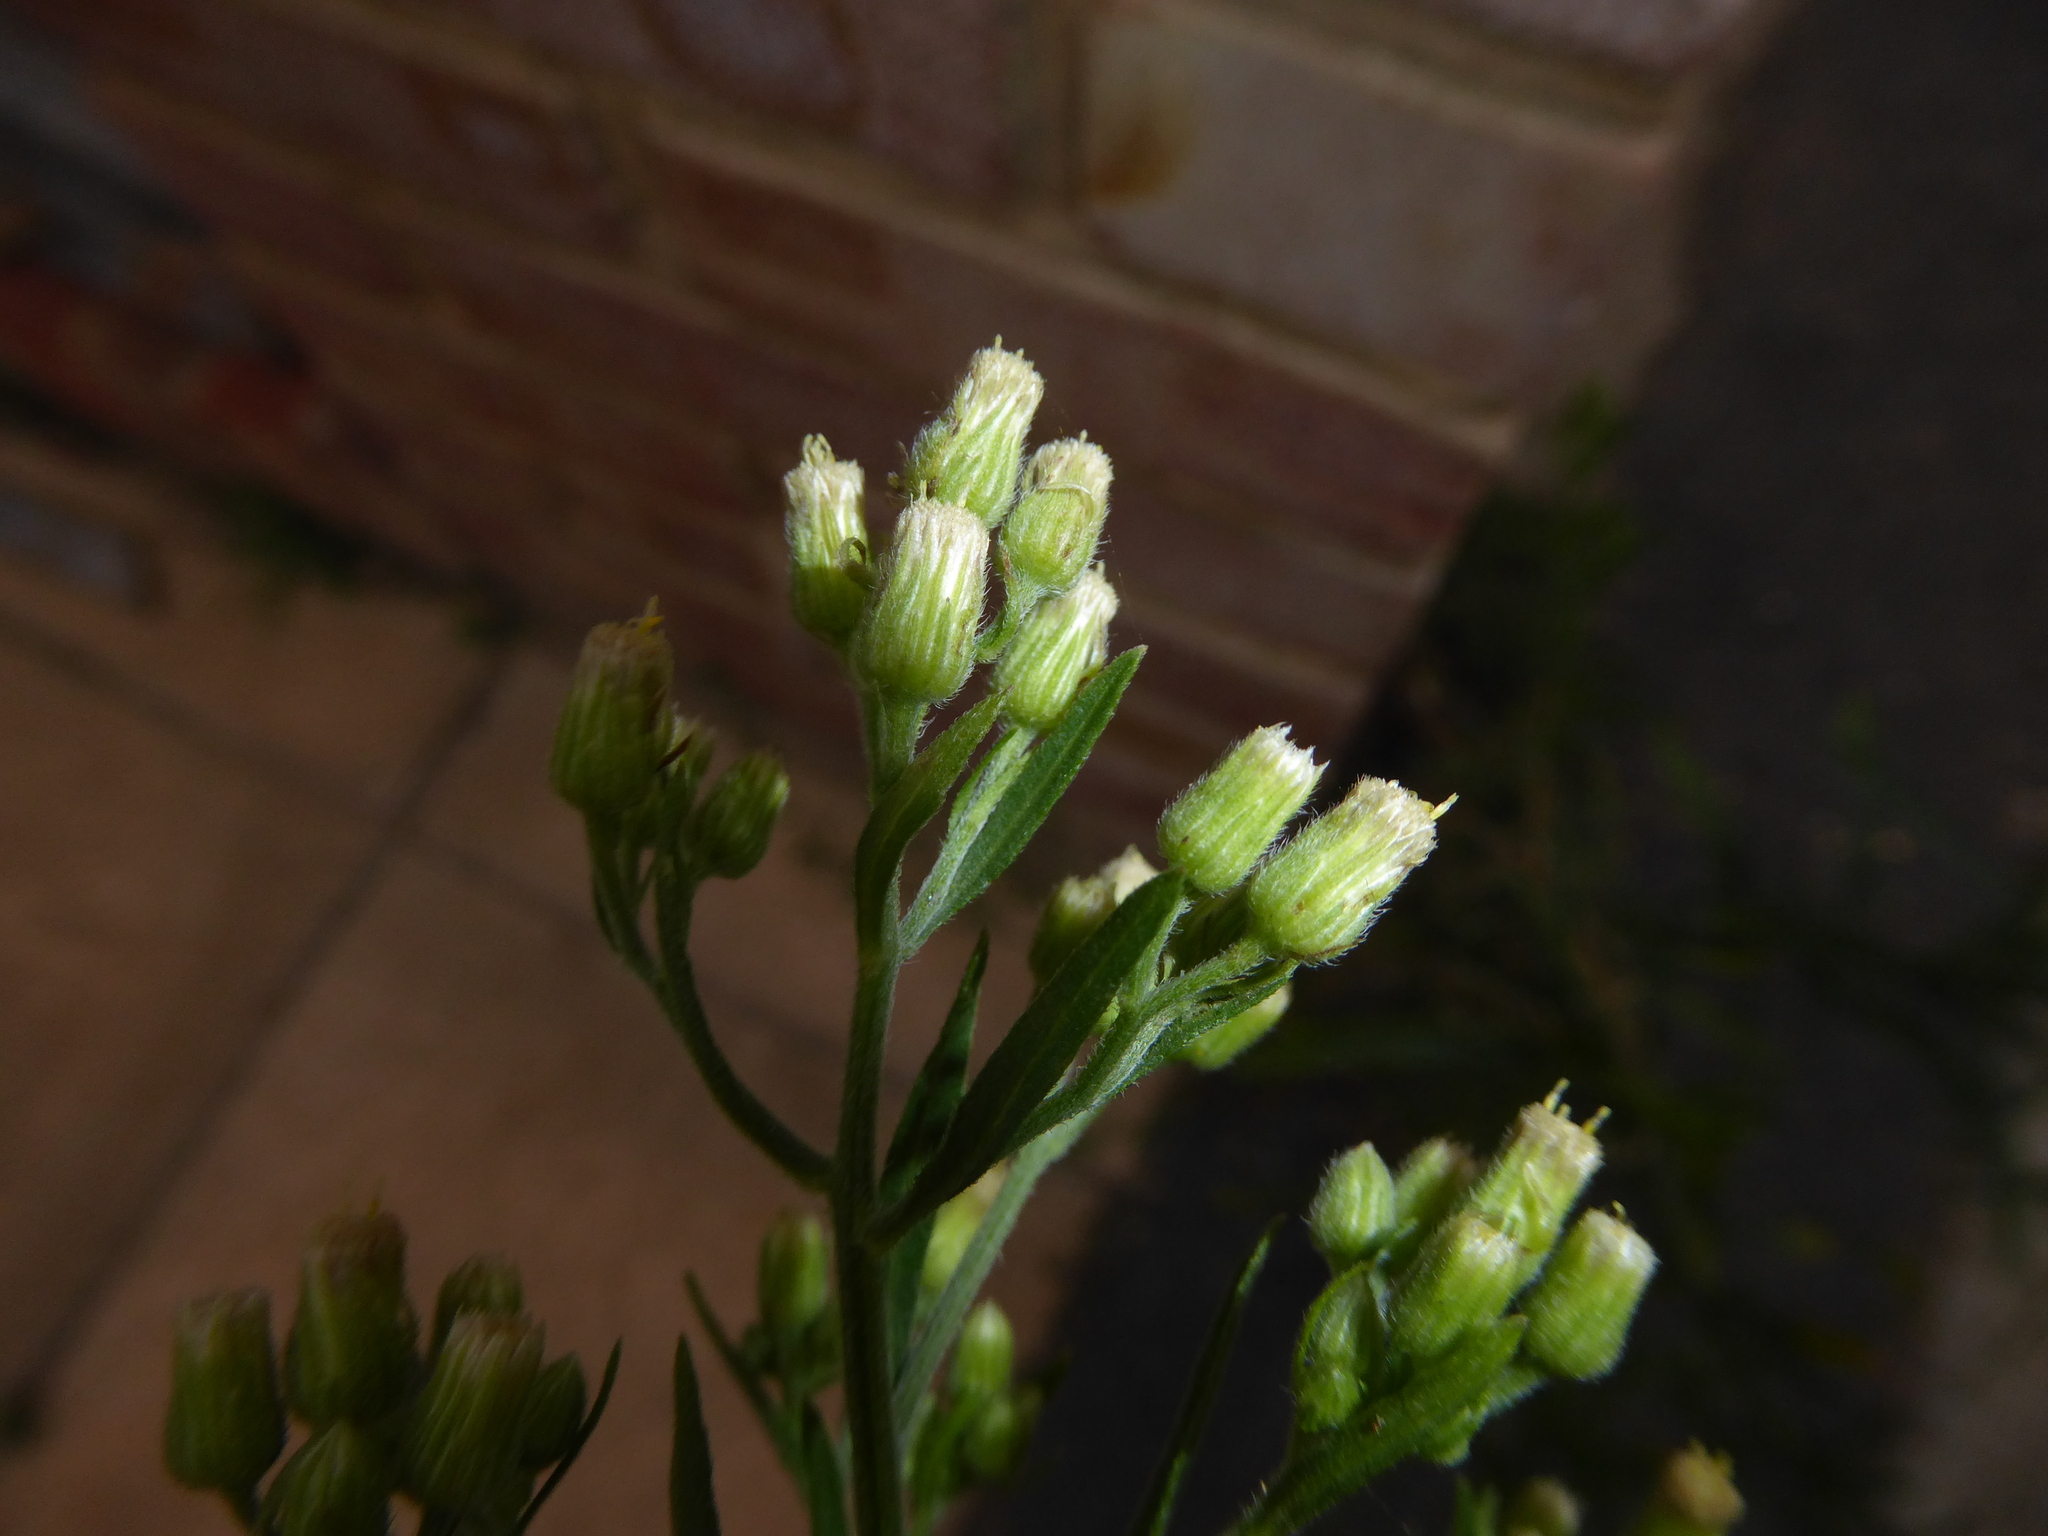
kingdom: Plantae
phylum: Tracheophyta
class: Magnoliopsida
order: Asterales
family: Asteraceae
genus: Erigeron
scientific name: Erigeron sumatrensis
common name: Daisy
